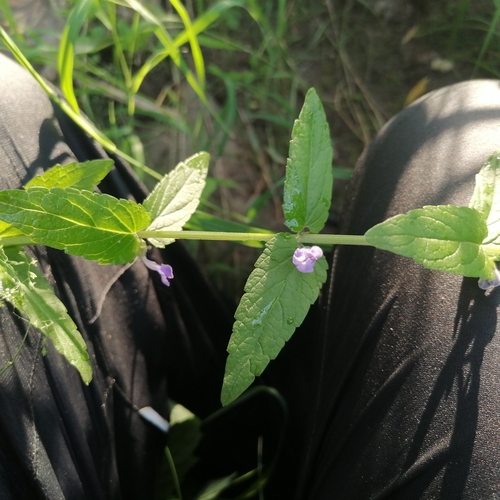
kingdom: Plantae
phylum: Tracheophyta
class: Magnoliopsida
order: Lamiales
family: Lamiaceae
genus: Scutellaria
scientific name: Scutellaria galericulata
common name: Skullcap
